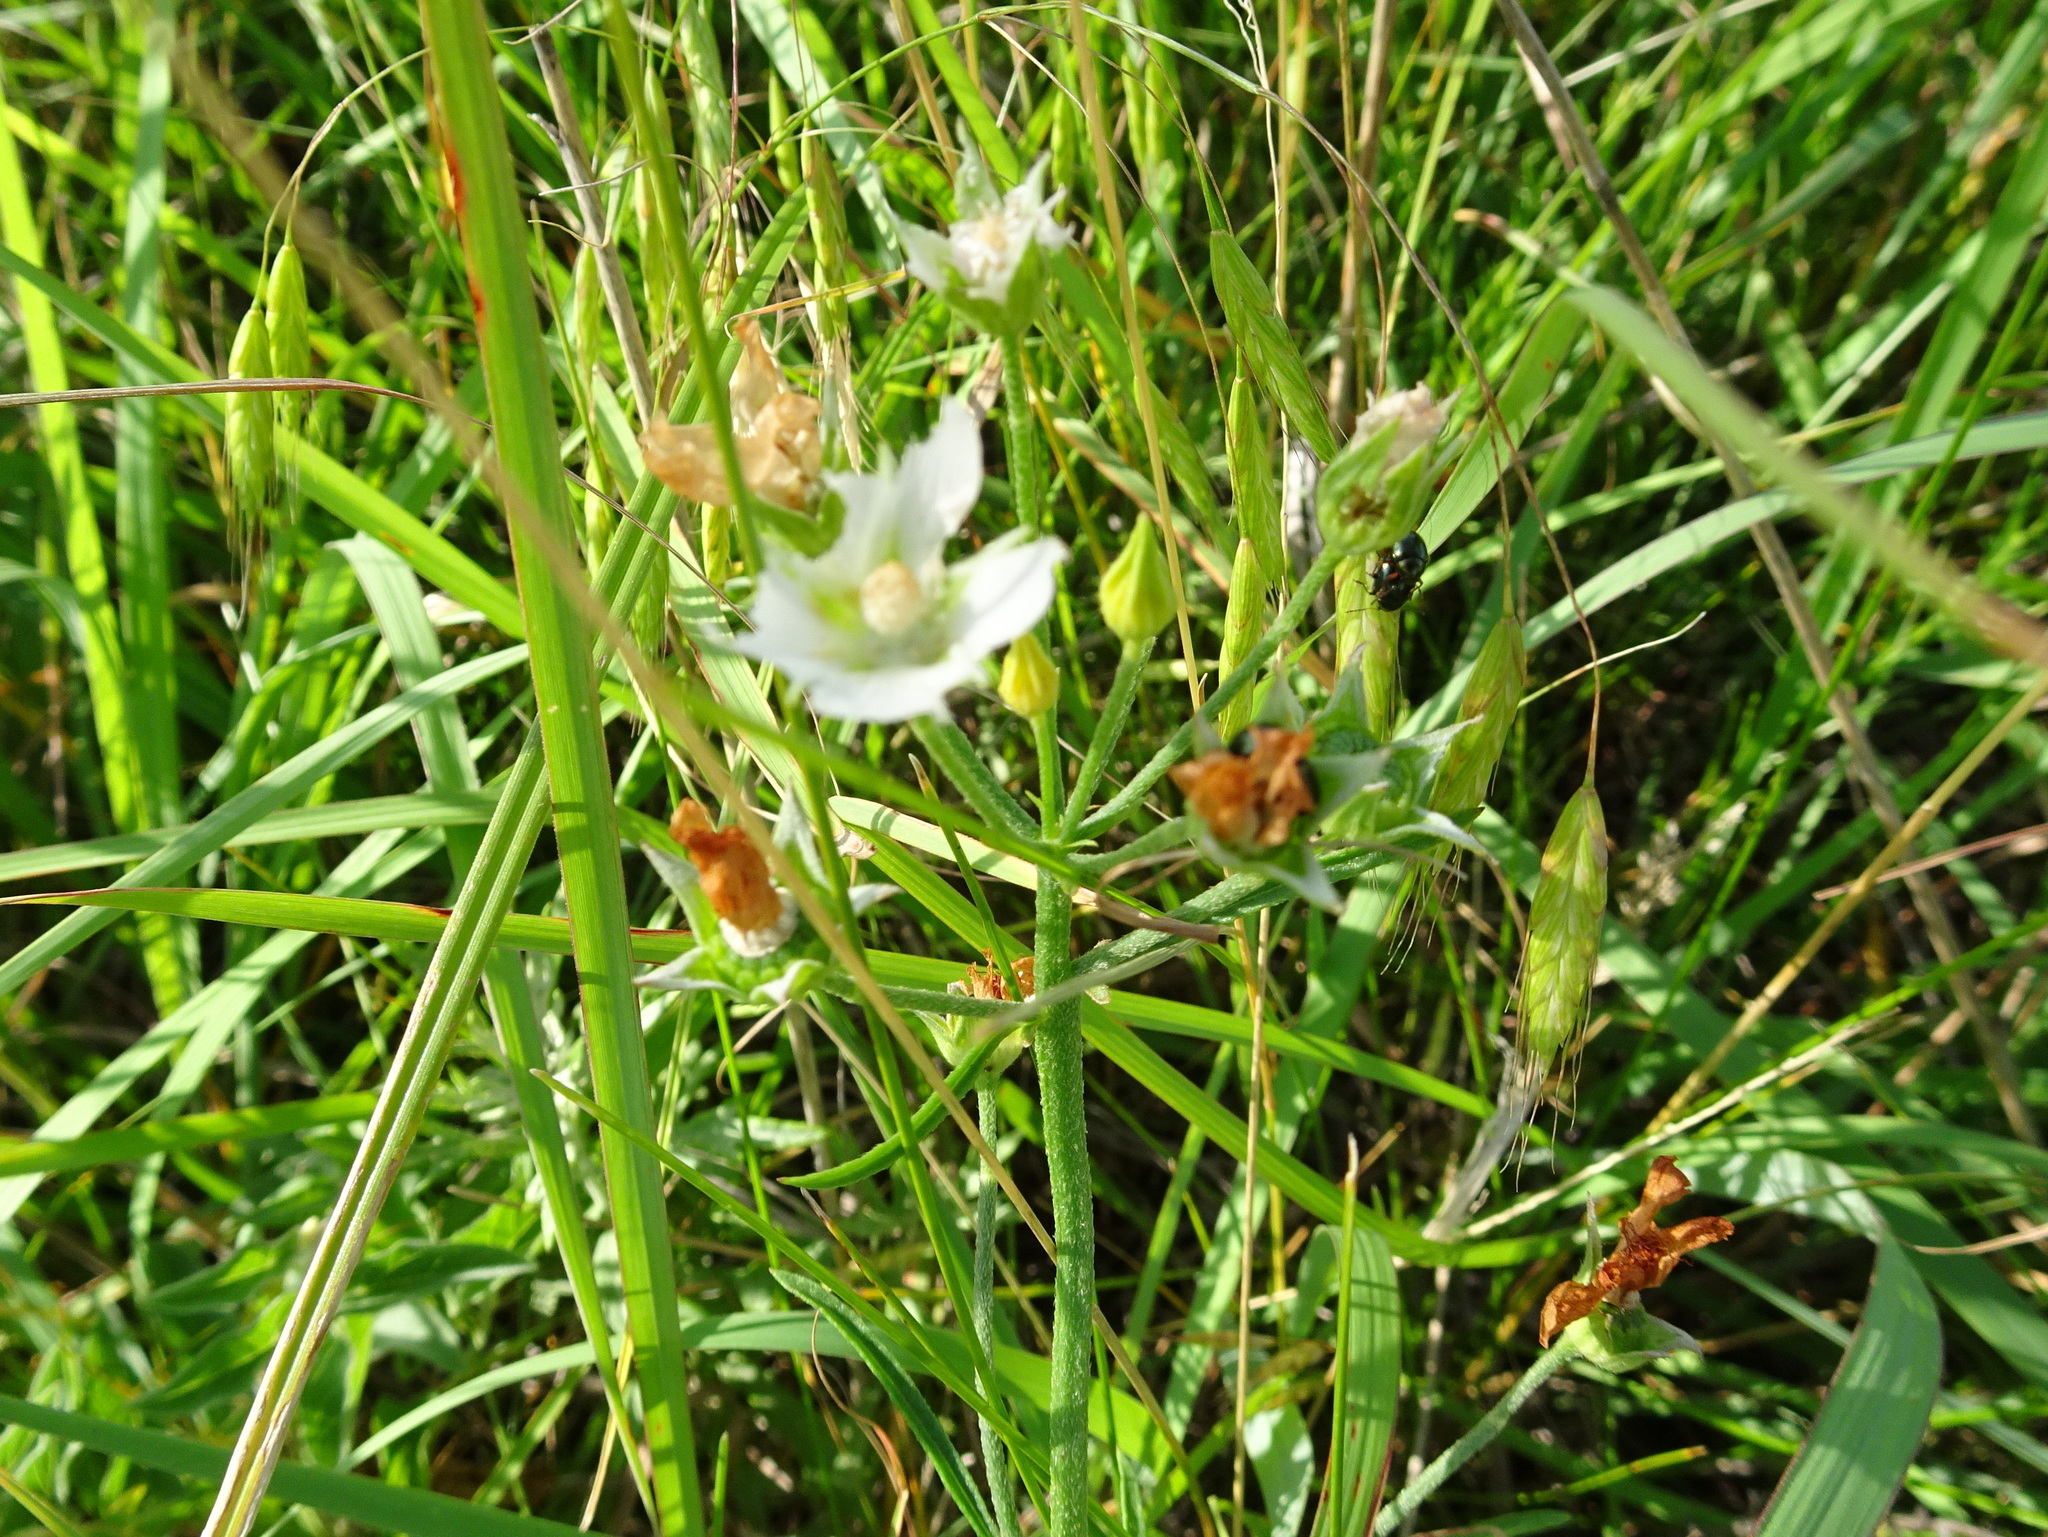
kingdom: Plantae
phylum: Tracheophyta
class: Magnoliopsida
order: Malvales
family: Malvaceae
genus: Callirhoe
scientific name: Callirhoe alcaeoides
